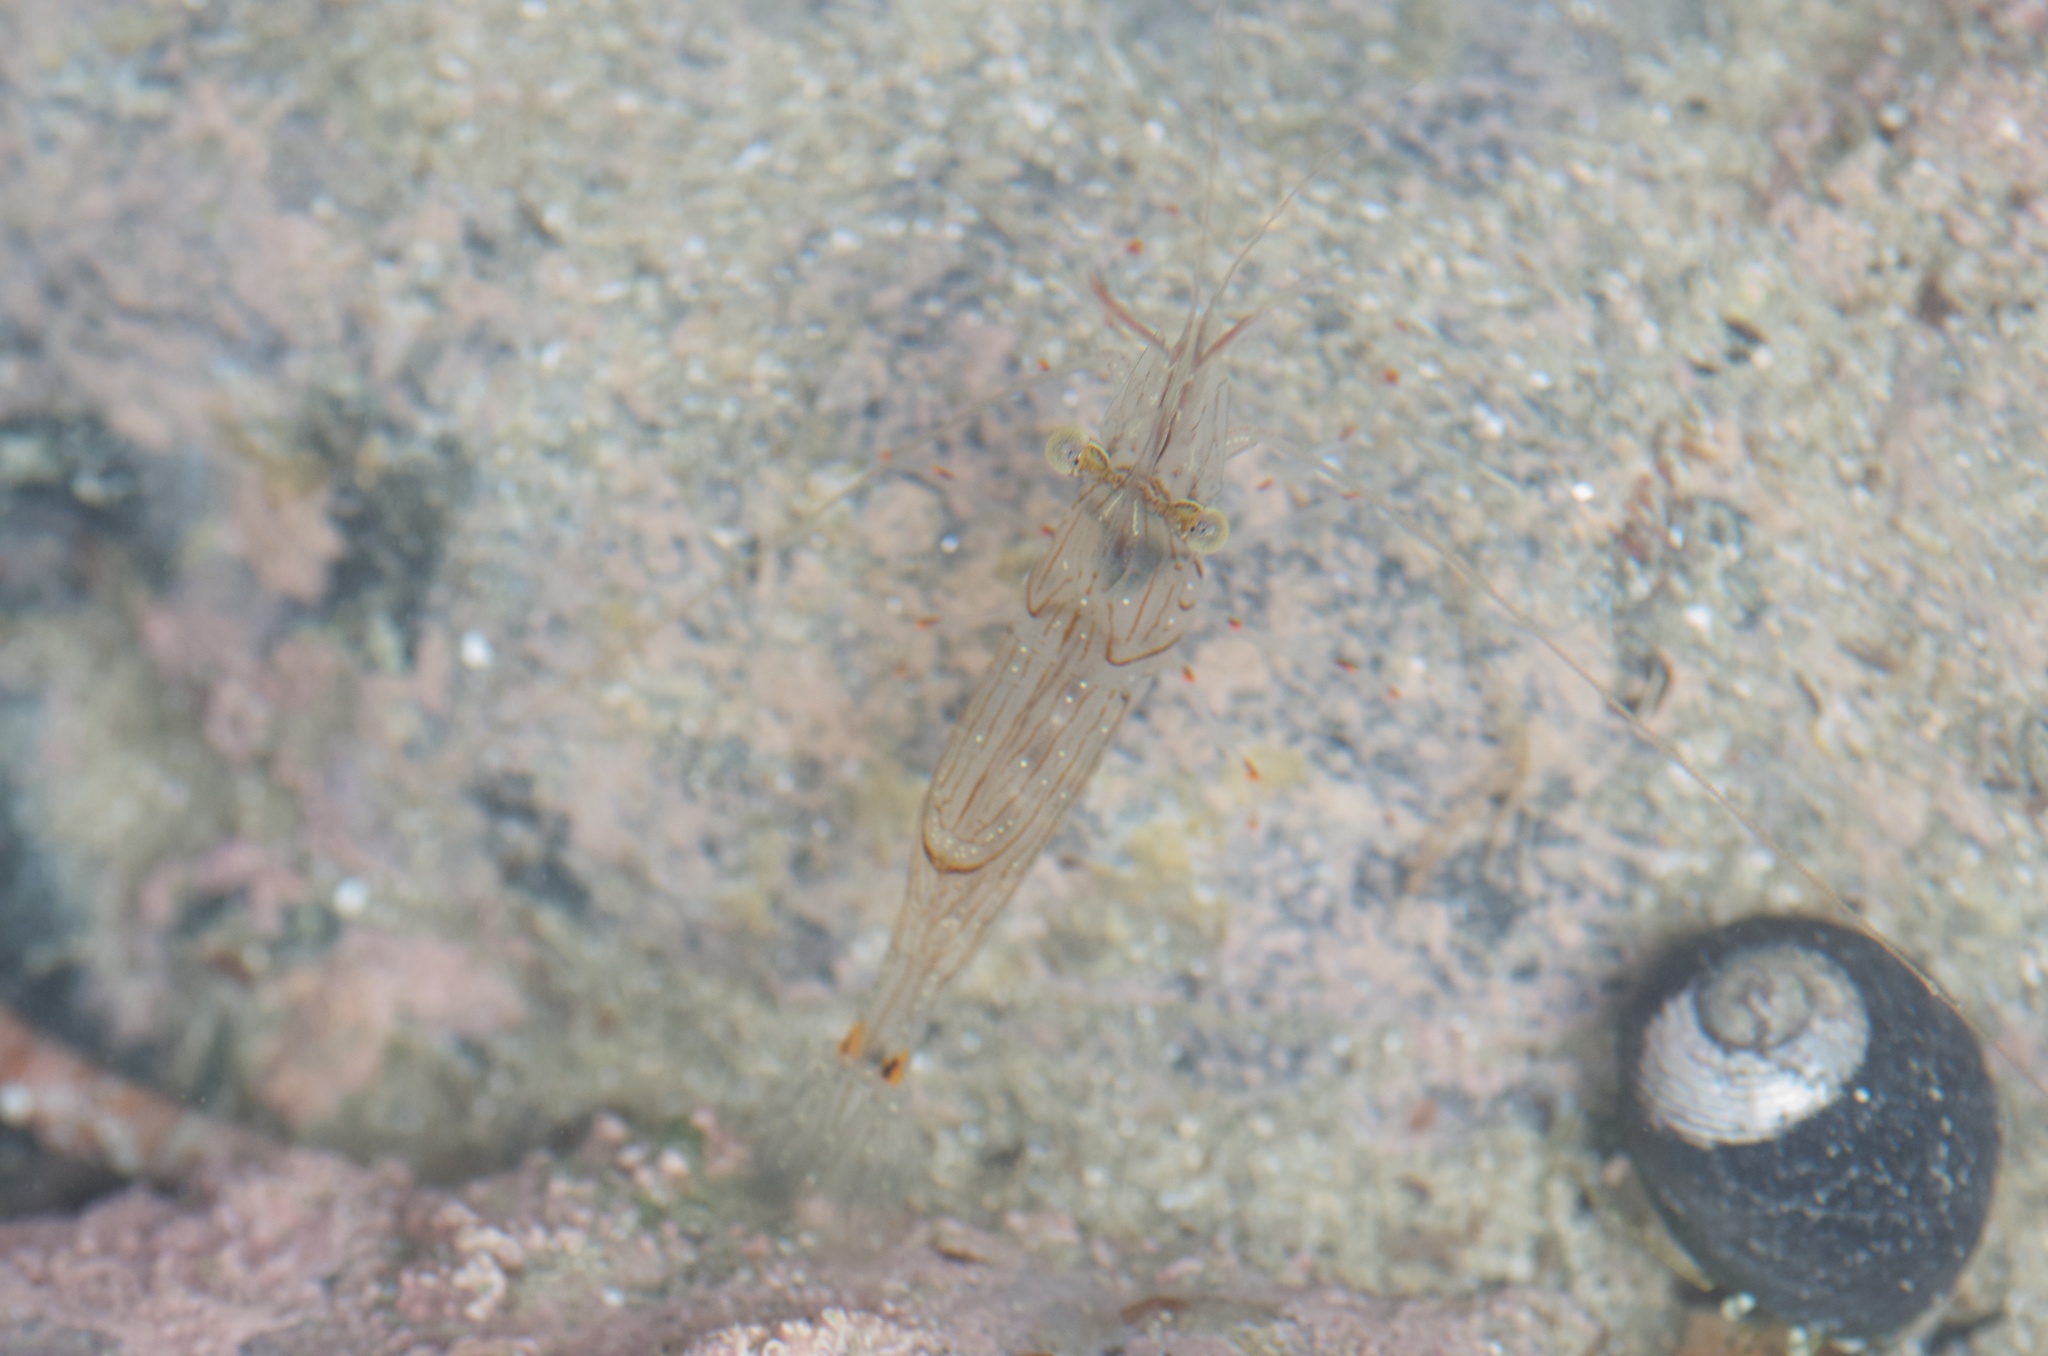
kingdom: Animalia
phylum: Arthropoda
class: Malacostraca
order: Decapoda
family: Palaemonidae
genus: Palaemon
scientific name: Palaemon affinis
